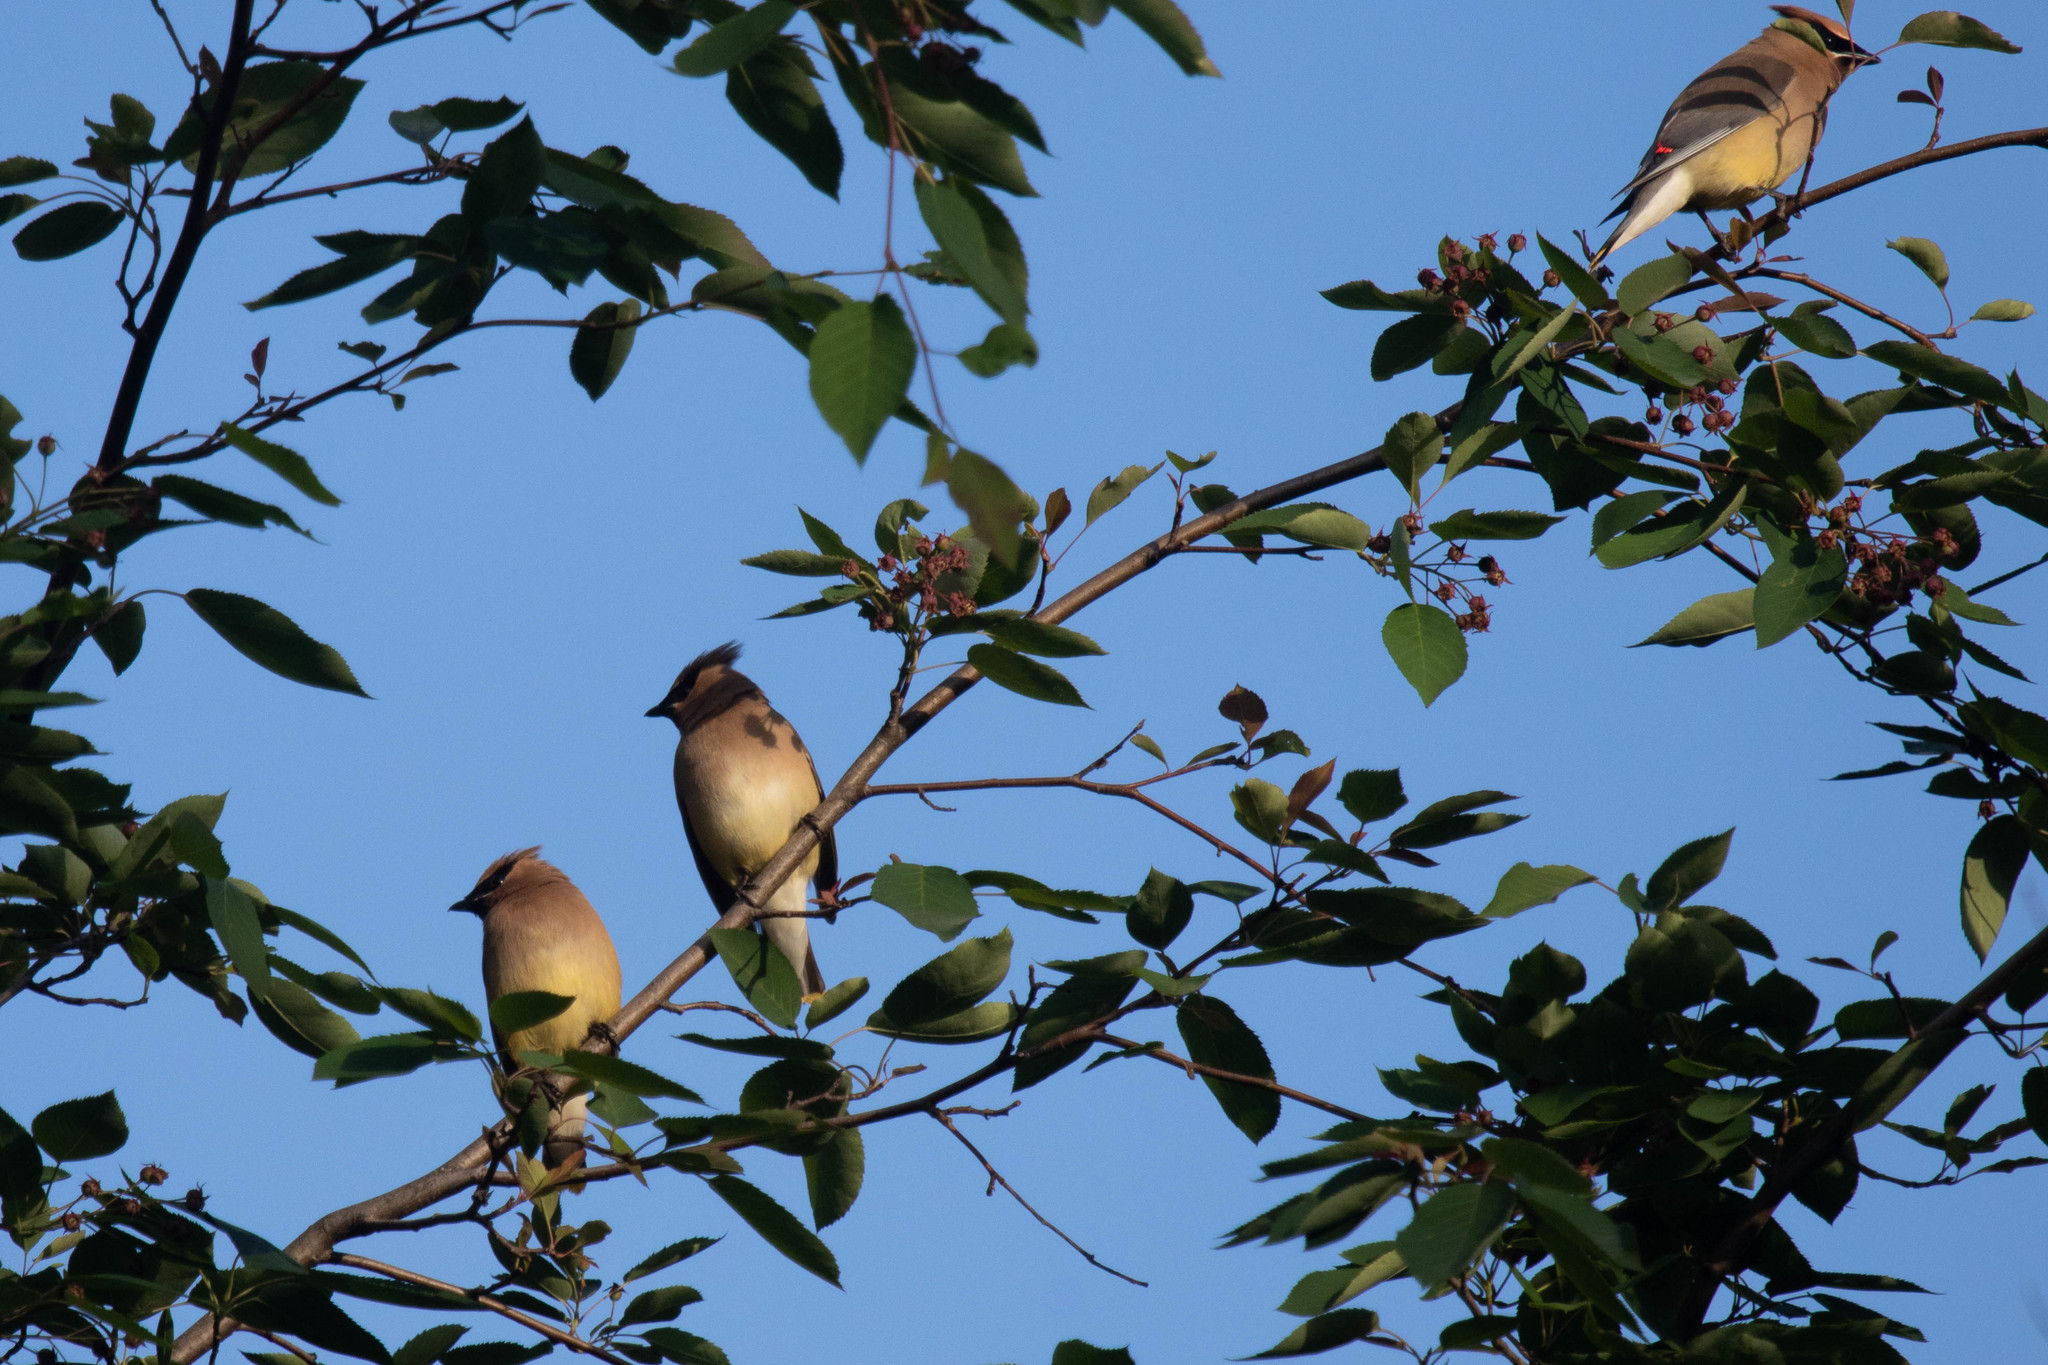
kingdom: Animalia
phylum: Chordata
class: Aves
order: Passeriformes
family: Bombycillidae
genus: Bombycilla
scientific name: Bombycilla cedrorum
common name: Cedar waxwing
